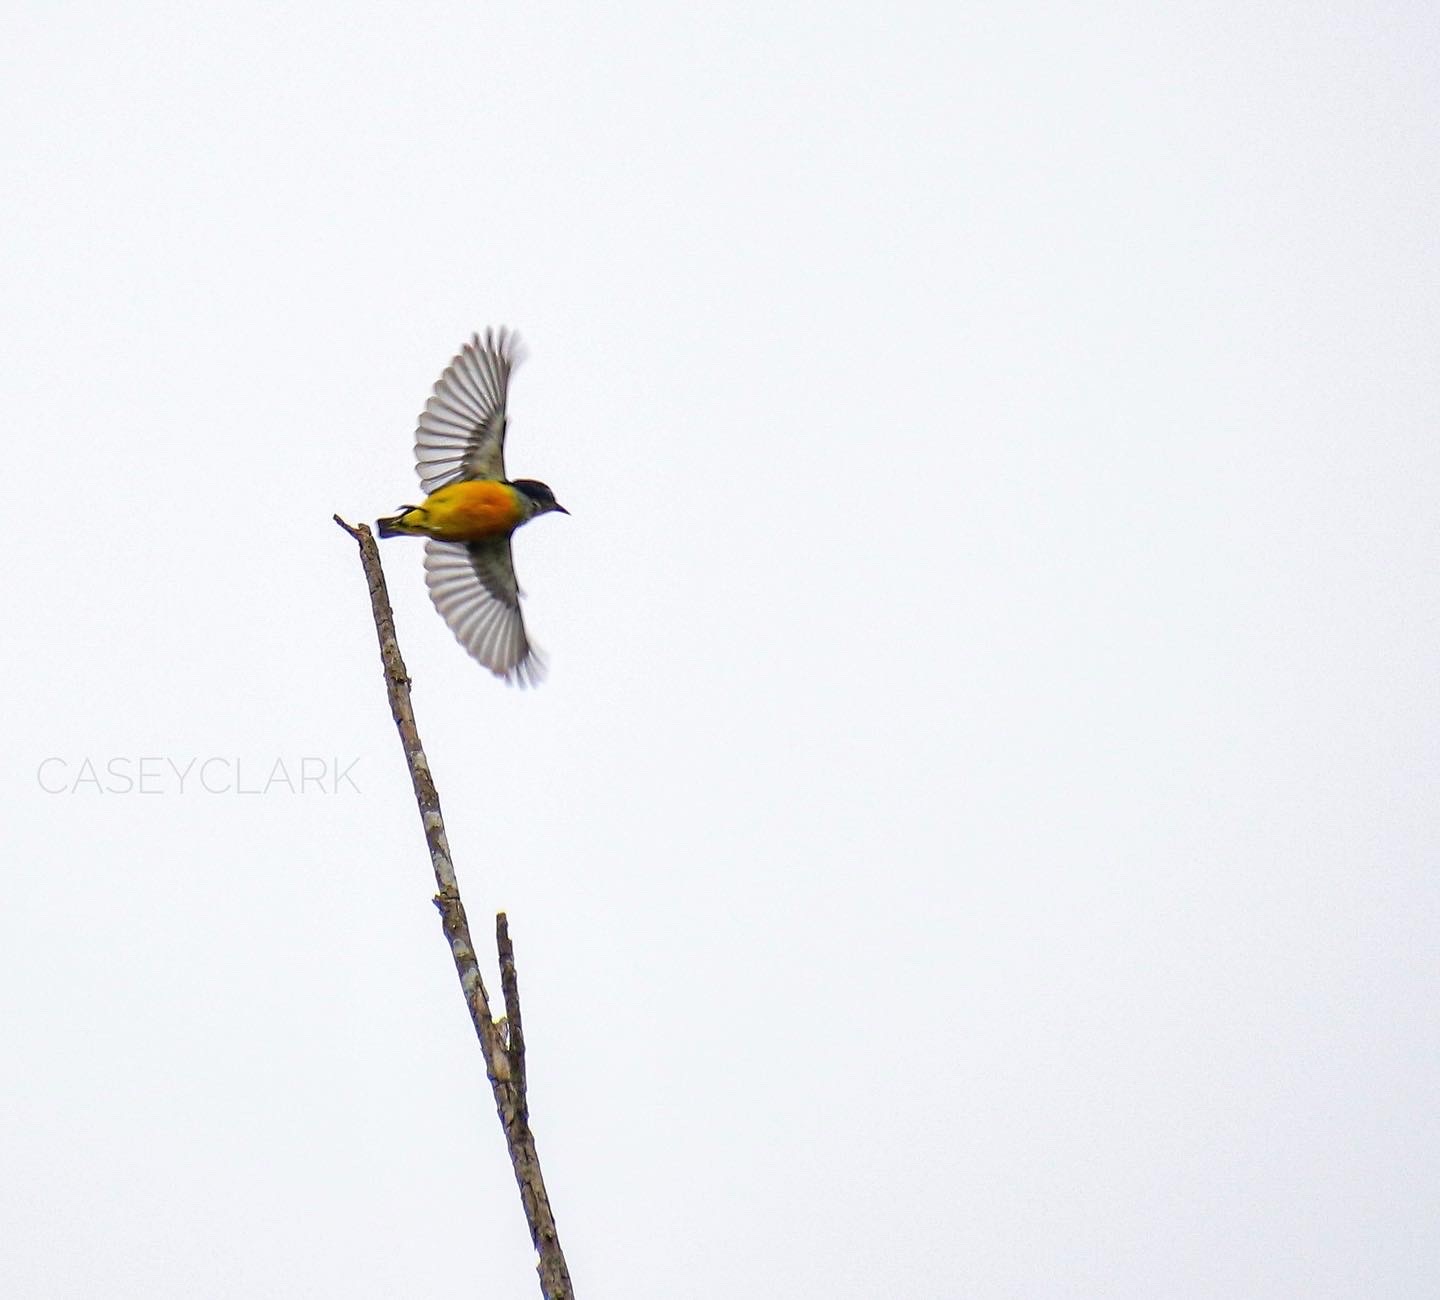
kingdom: Animalia
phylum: Chordata
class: Aves
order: Passeriformes
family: Dicaeidae
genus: Dicaeum
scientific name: Dicaeum trigonostigma
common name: Orange-bellied flowerpecker
